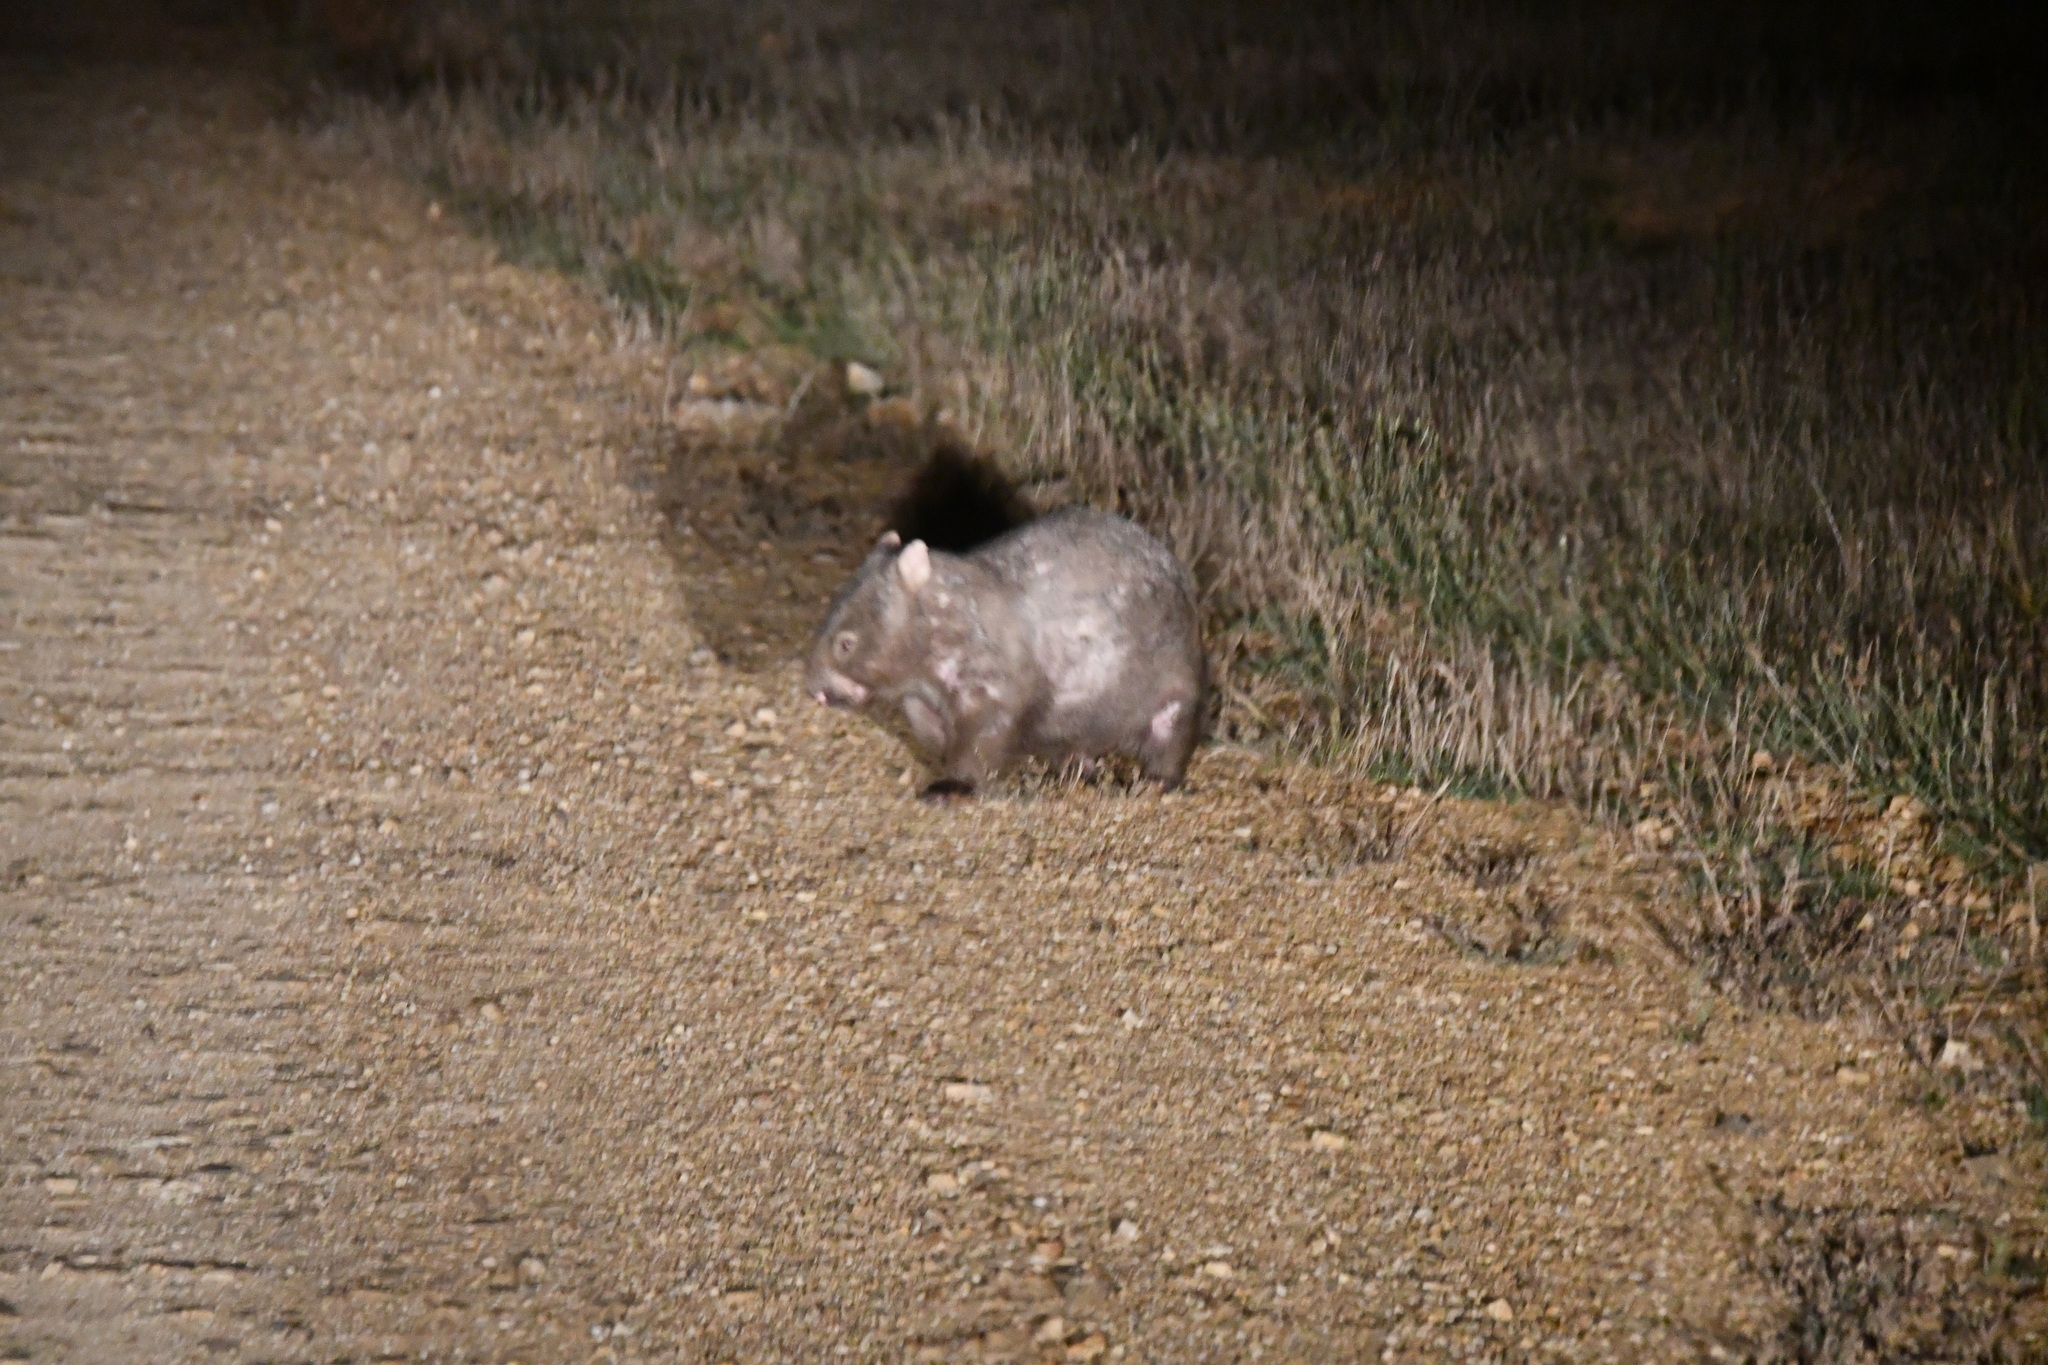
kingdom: Animalia
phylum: Arthropoda
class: Arachnida
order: Sarcoptiformes
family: Sarcoptidae
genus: Sarcoptes
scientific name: Sarcoptes scabiei
